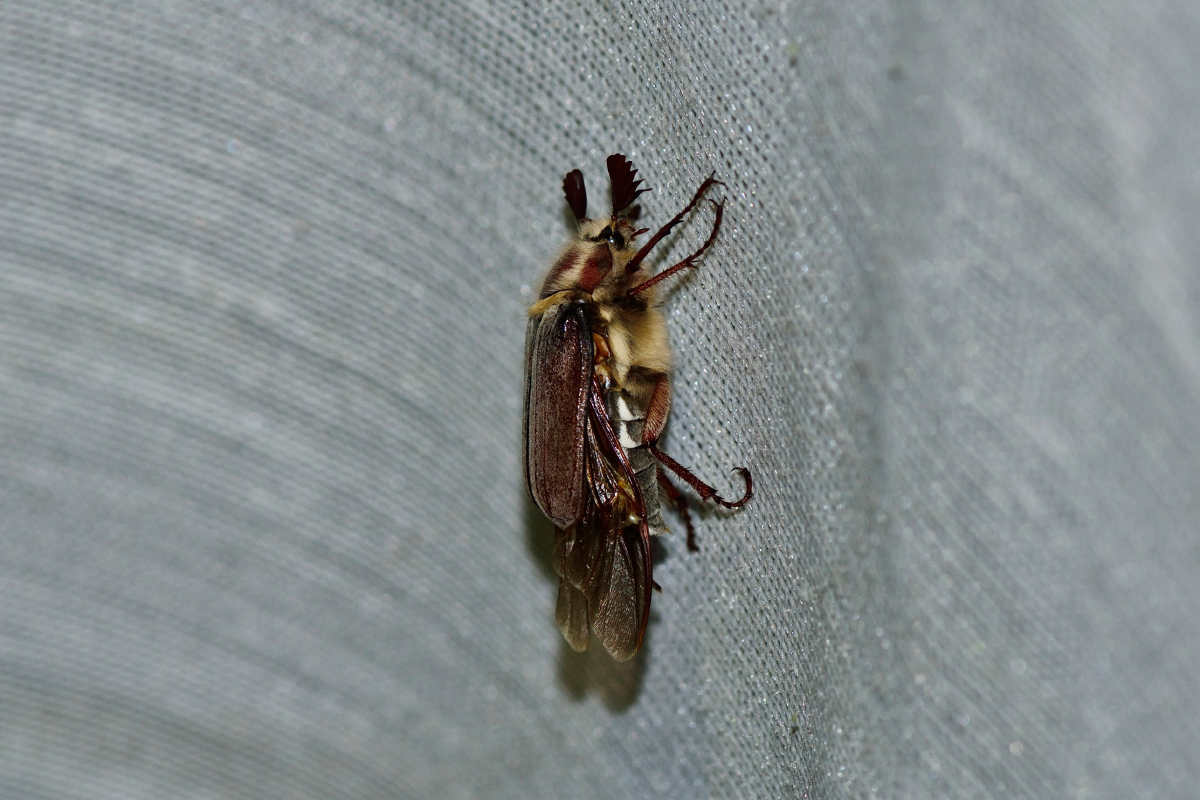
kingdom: Animalia
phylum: Arthropoda
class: Insecta
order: Coleoptera
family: Scarabaeidae
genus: Melolontha
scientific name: Melolontha hippocastani
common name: Chestnut cockchafer
